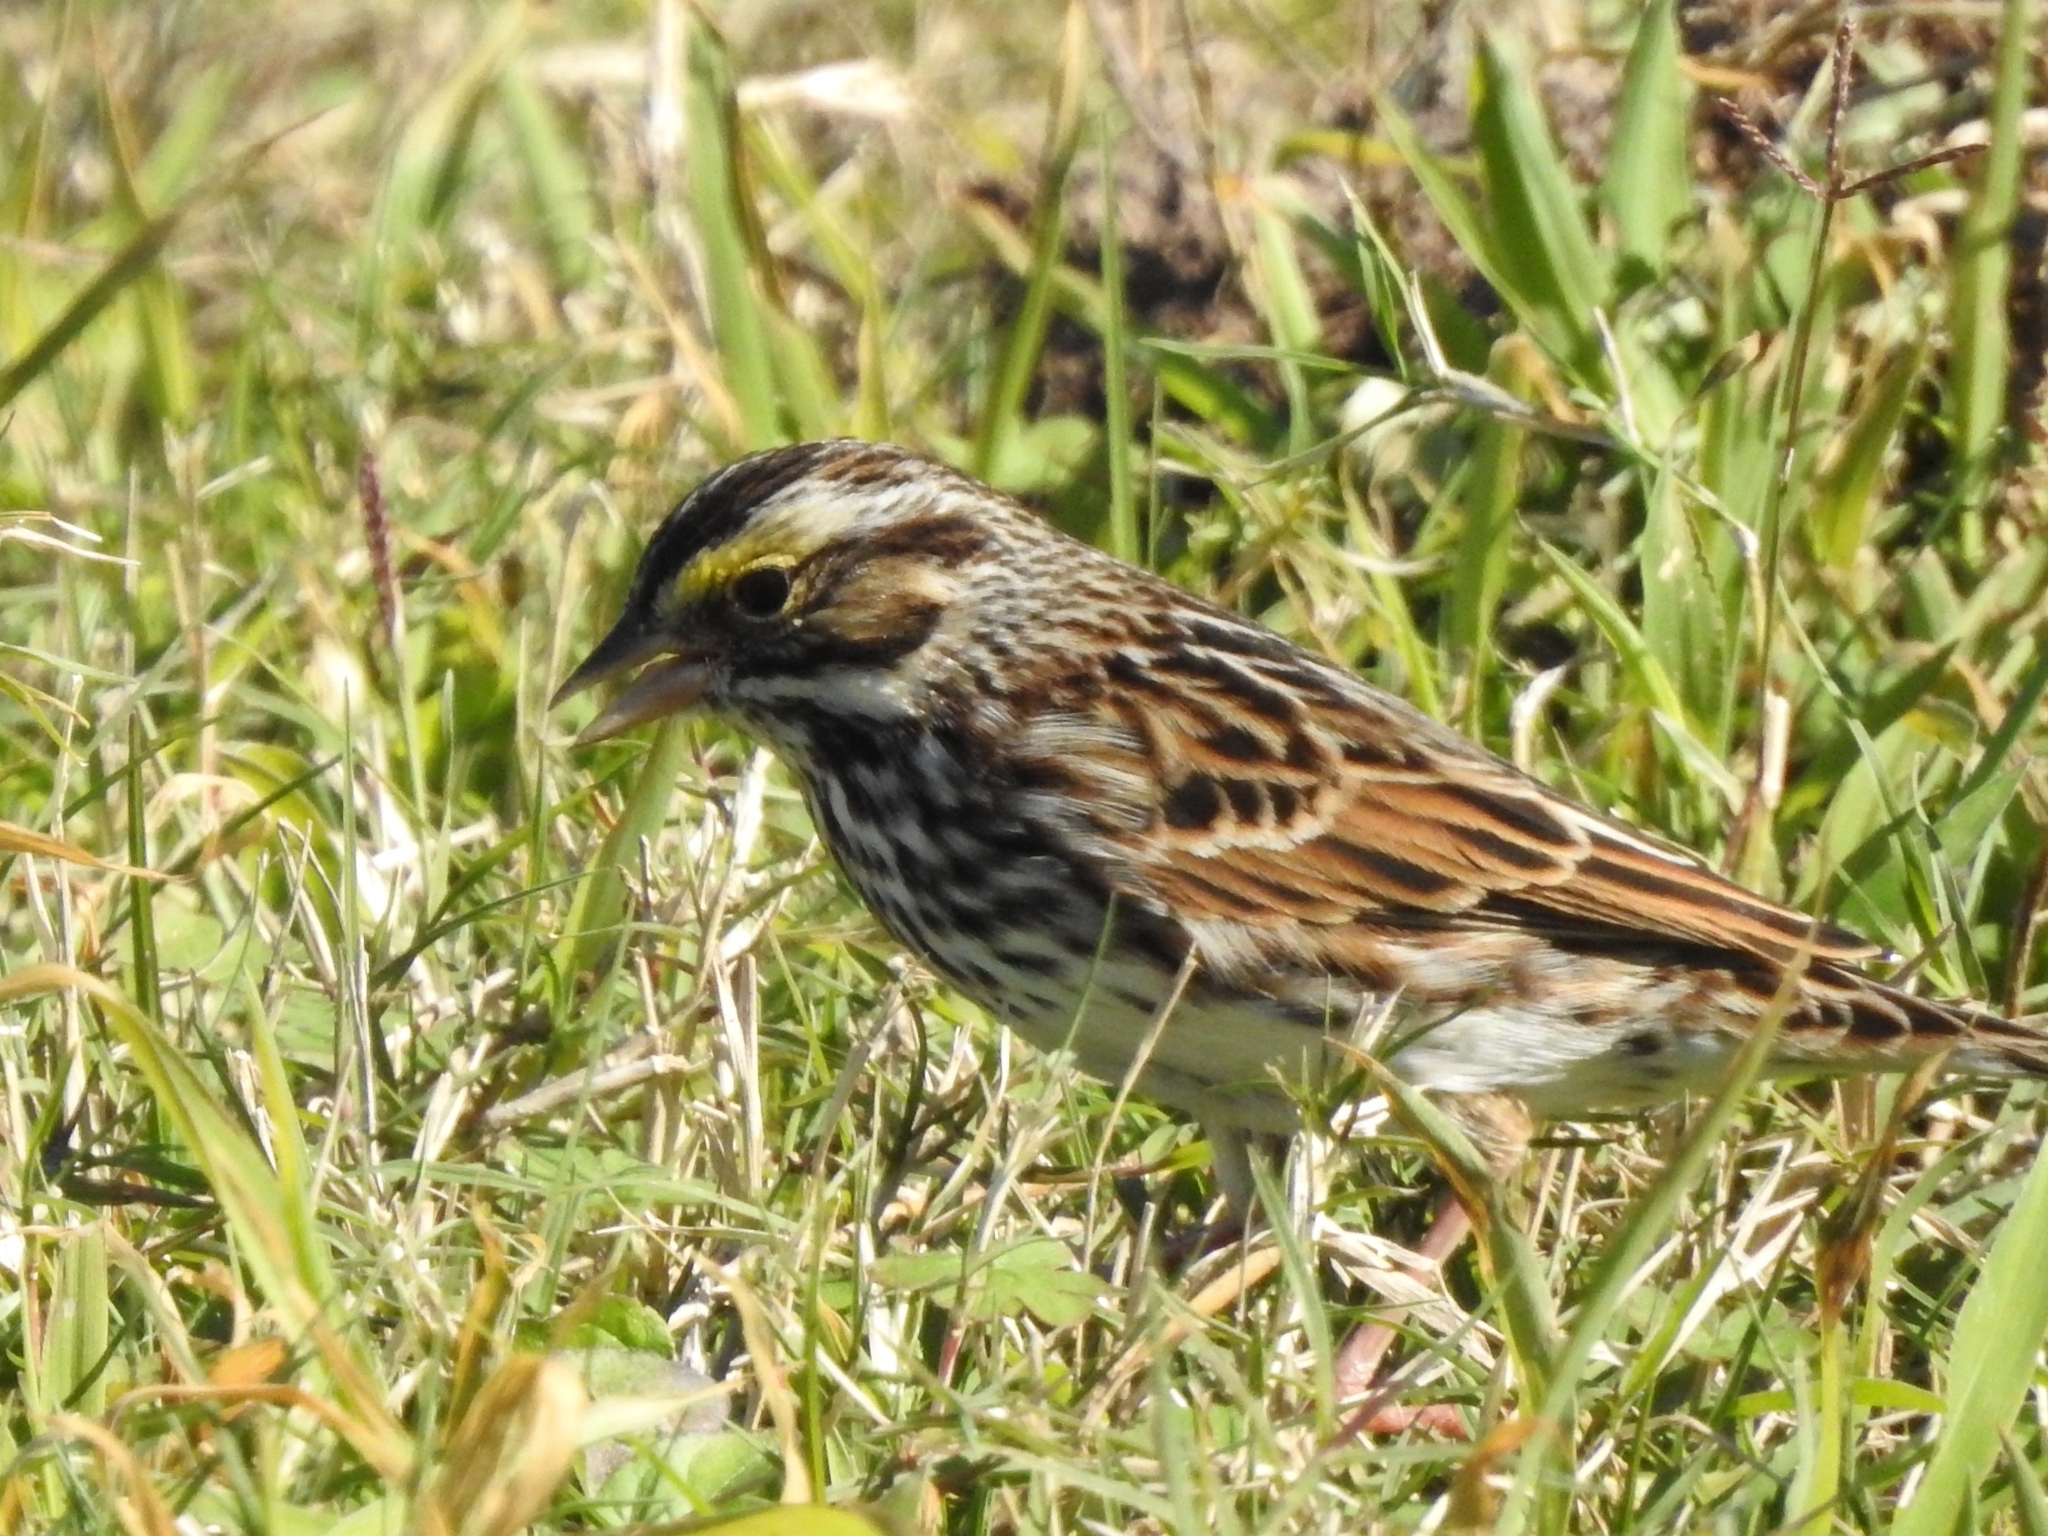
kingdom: Animalia
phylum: Chordata
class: Aves
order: Passeriformes
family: Passerellidae
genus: Passerculus
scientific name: Passerculus sandwichensis
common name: Savannah sparrow
